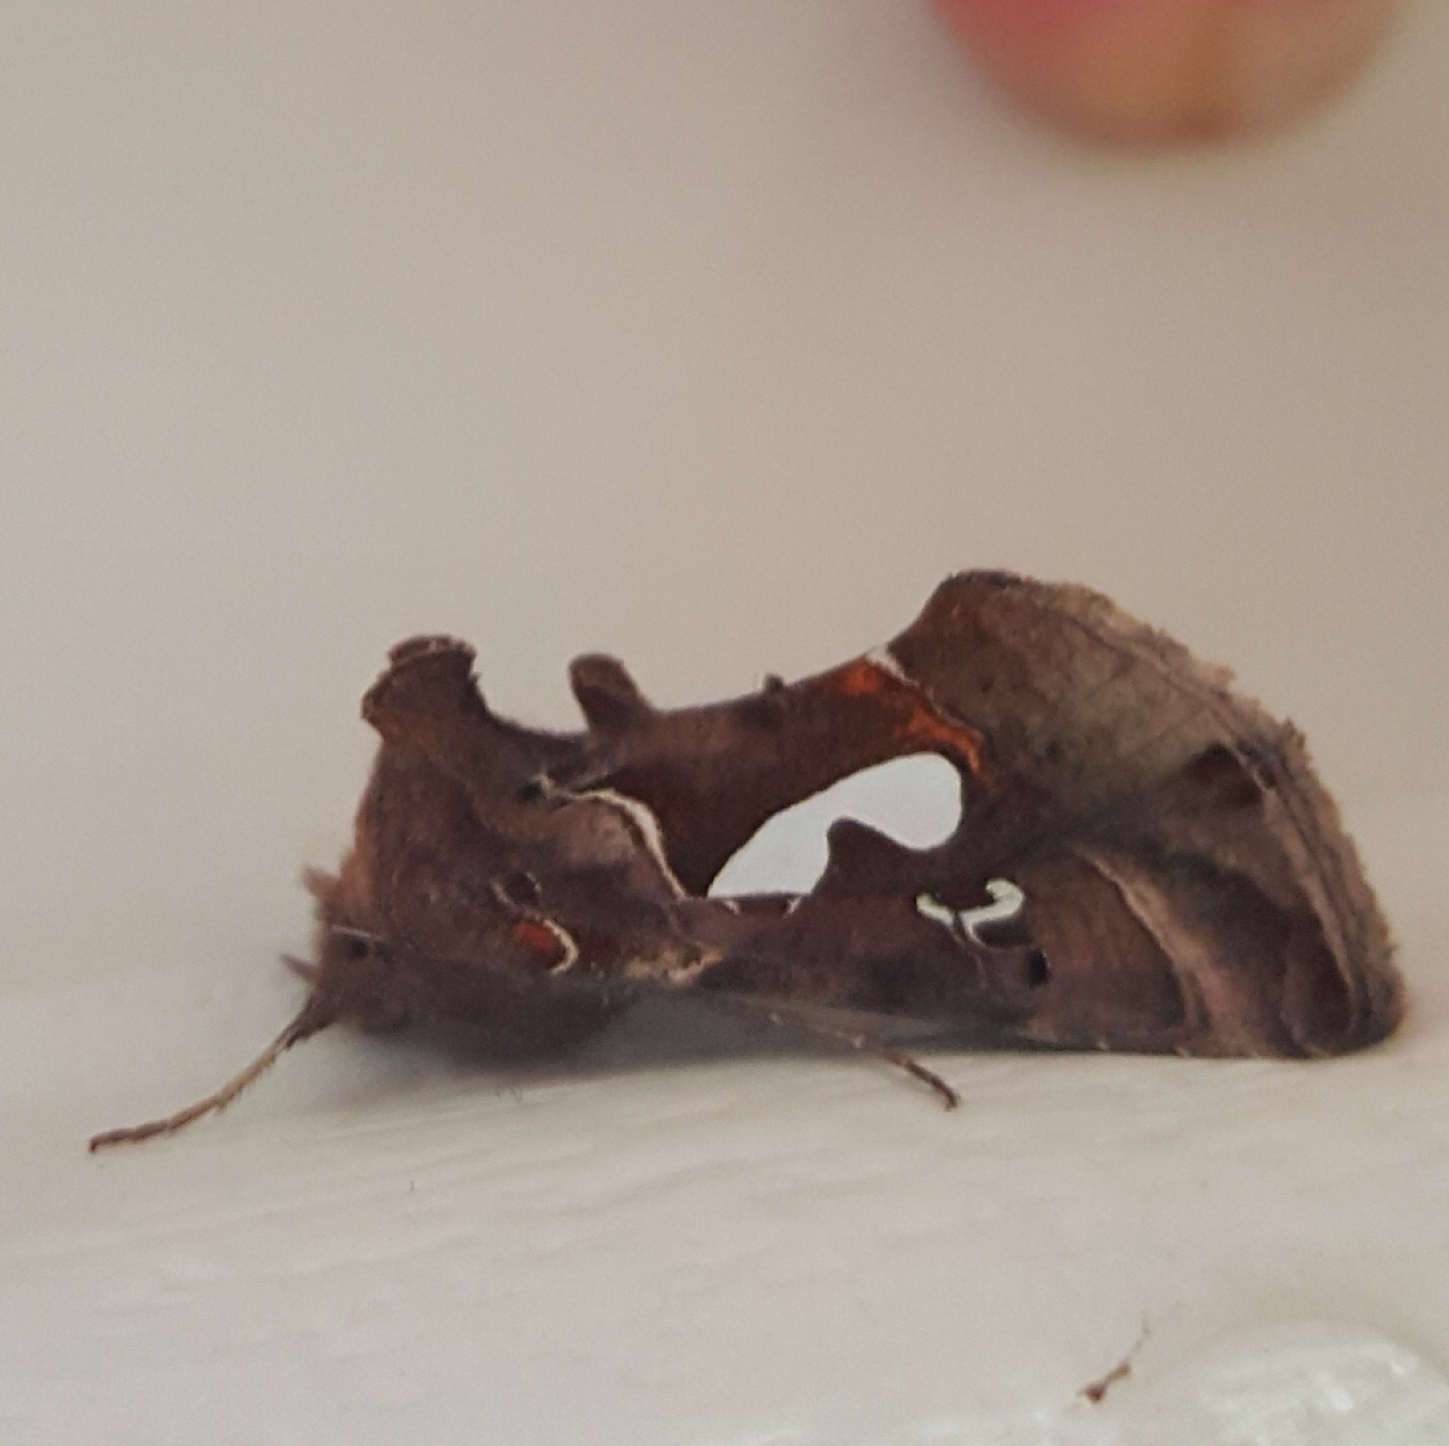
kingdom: Animalia
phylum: Arthropoda
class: Insecta
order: Lepidoptera
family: Noctuidae
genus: Megalographa
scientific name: Megalographa biloba
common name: Cutworm
